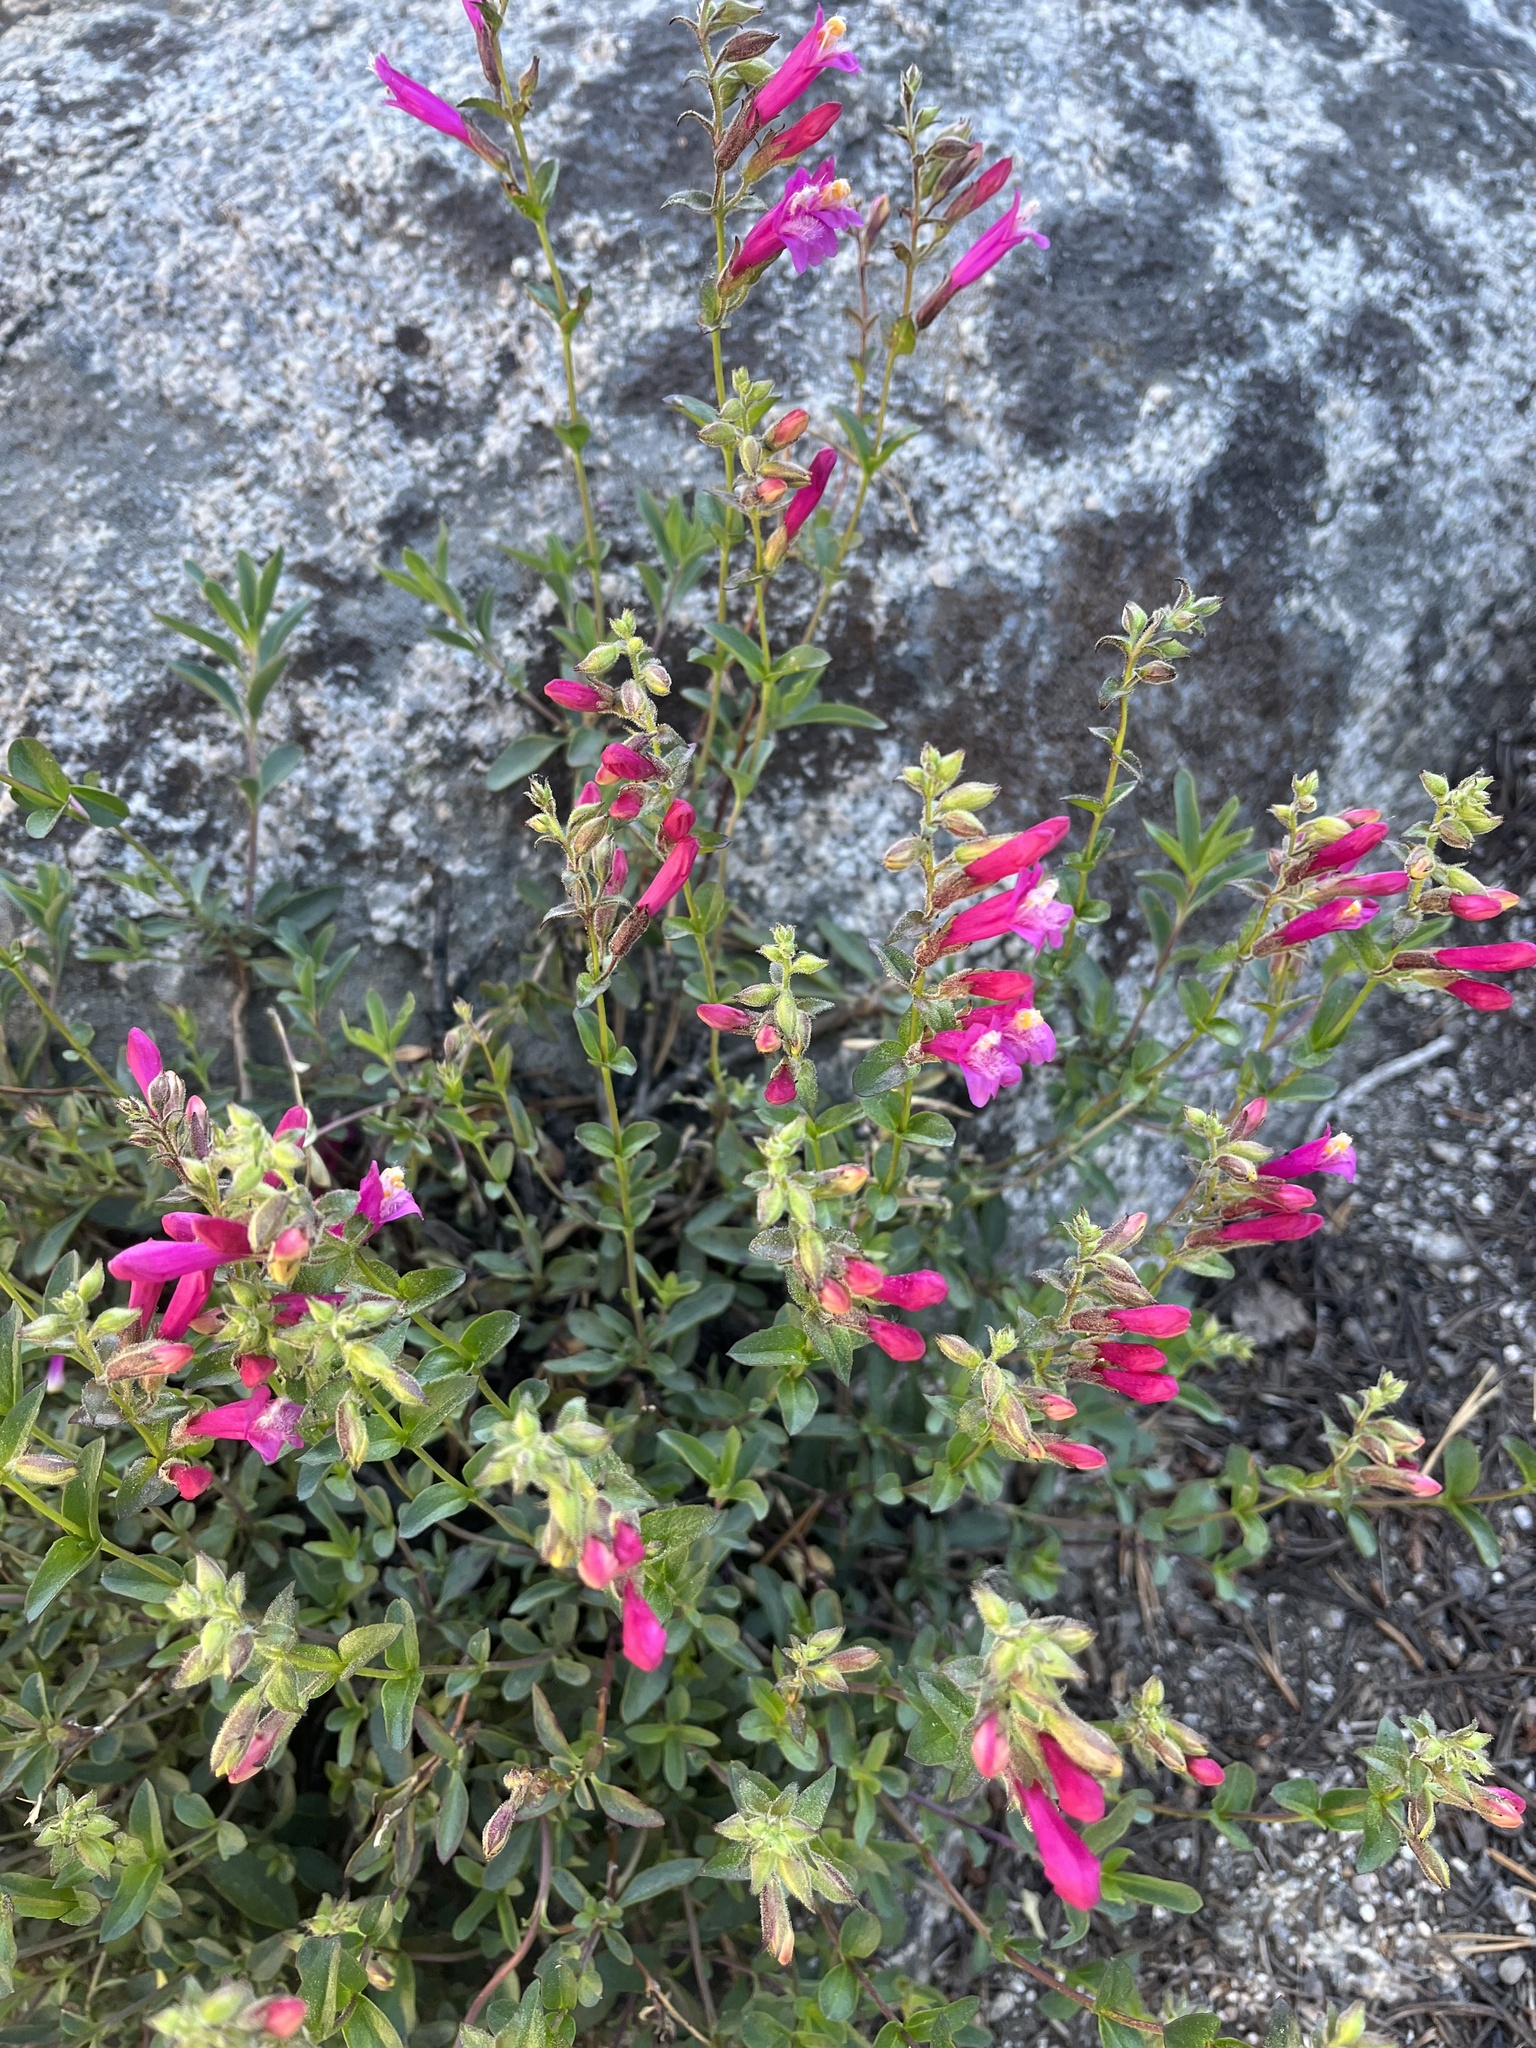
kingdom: Plantae
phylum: Tracheophyta
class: Magnoliopsida
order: Lamiales
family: Plantaginaceae
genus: Penstemon
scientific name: Penstemon newberryi
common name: Mountain-pride
